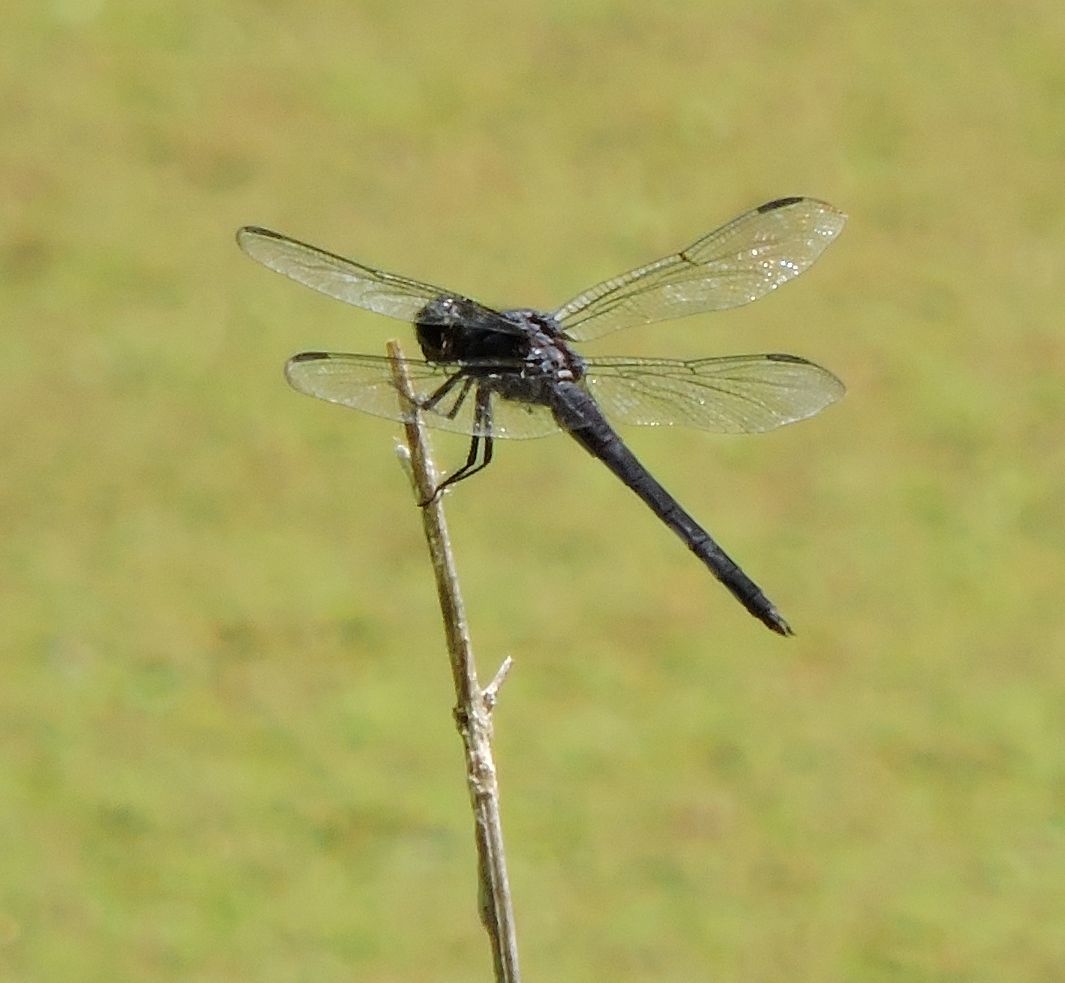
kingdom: Animalia
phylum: Arthropoda
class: Insecta
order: Odonata
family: Libellulidae
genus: Libellula
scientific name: Libellula incesta
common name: Slaty skimmer
